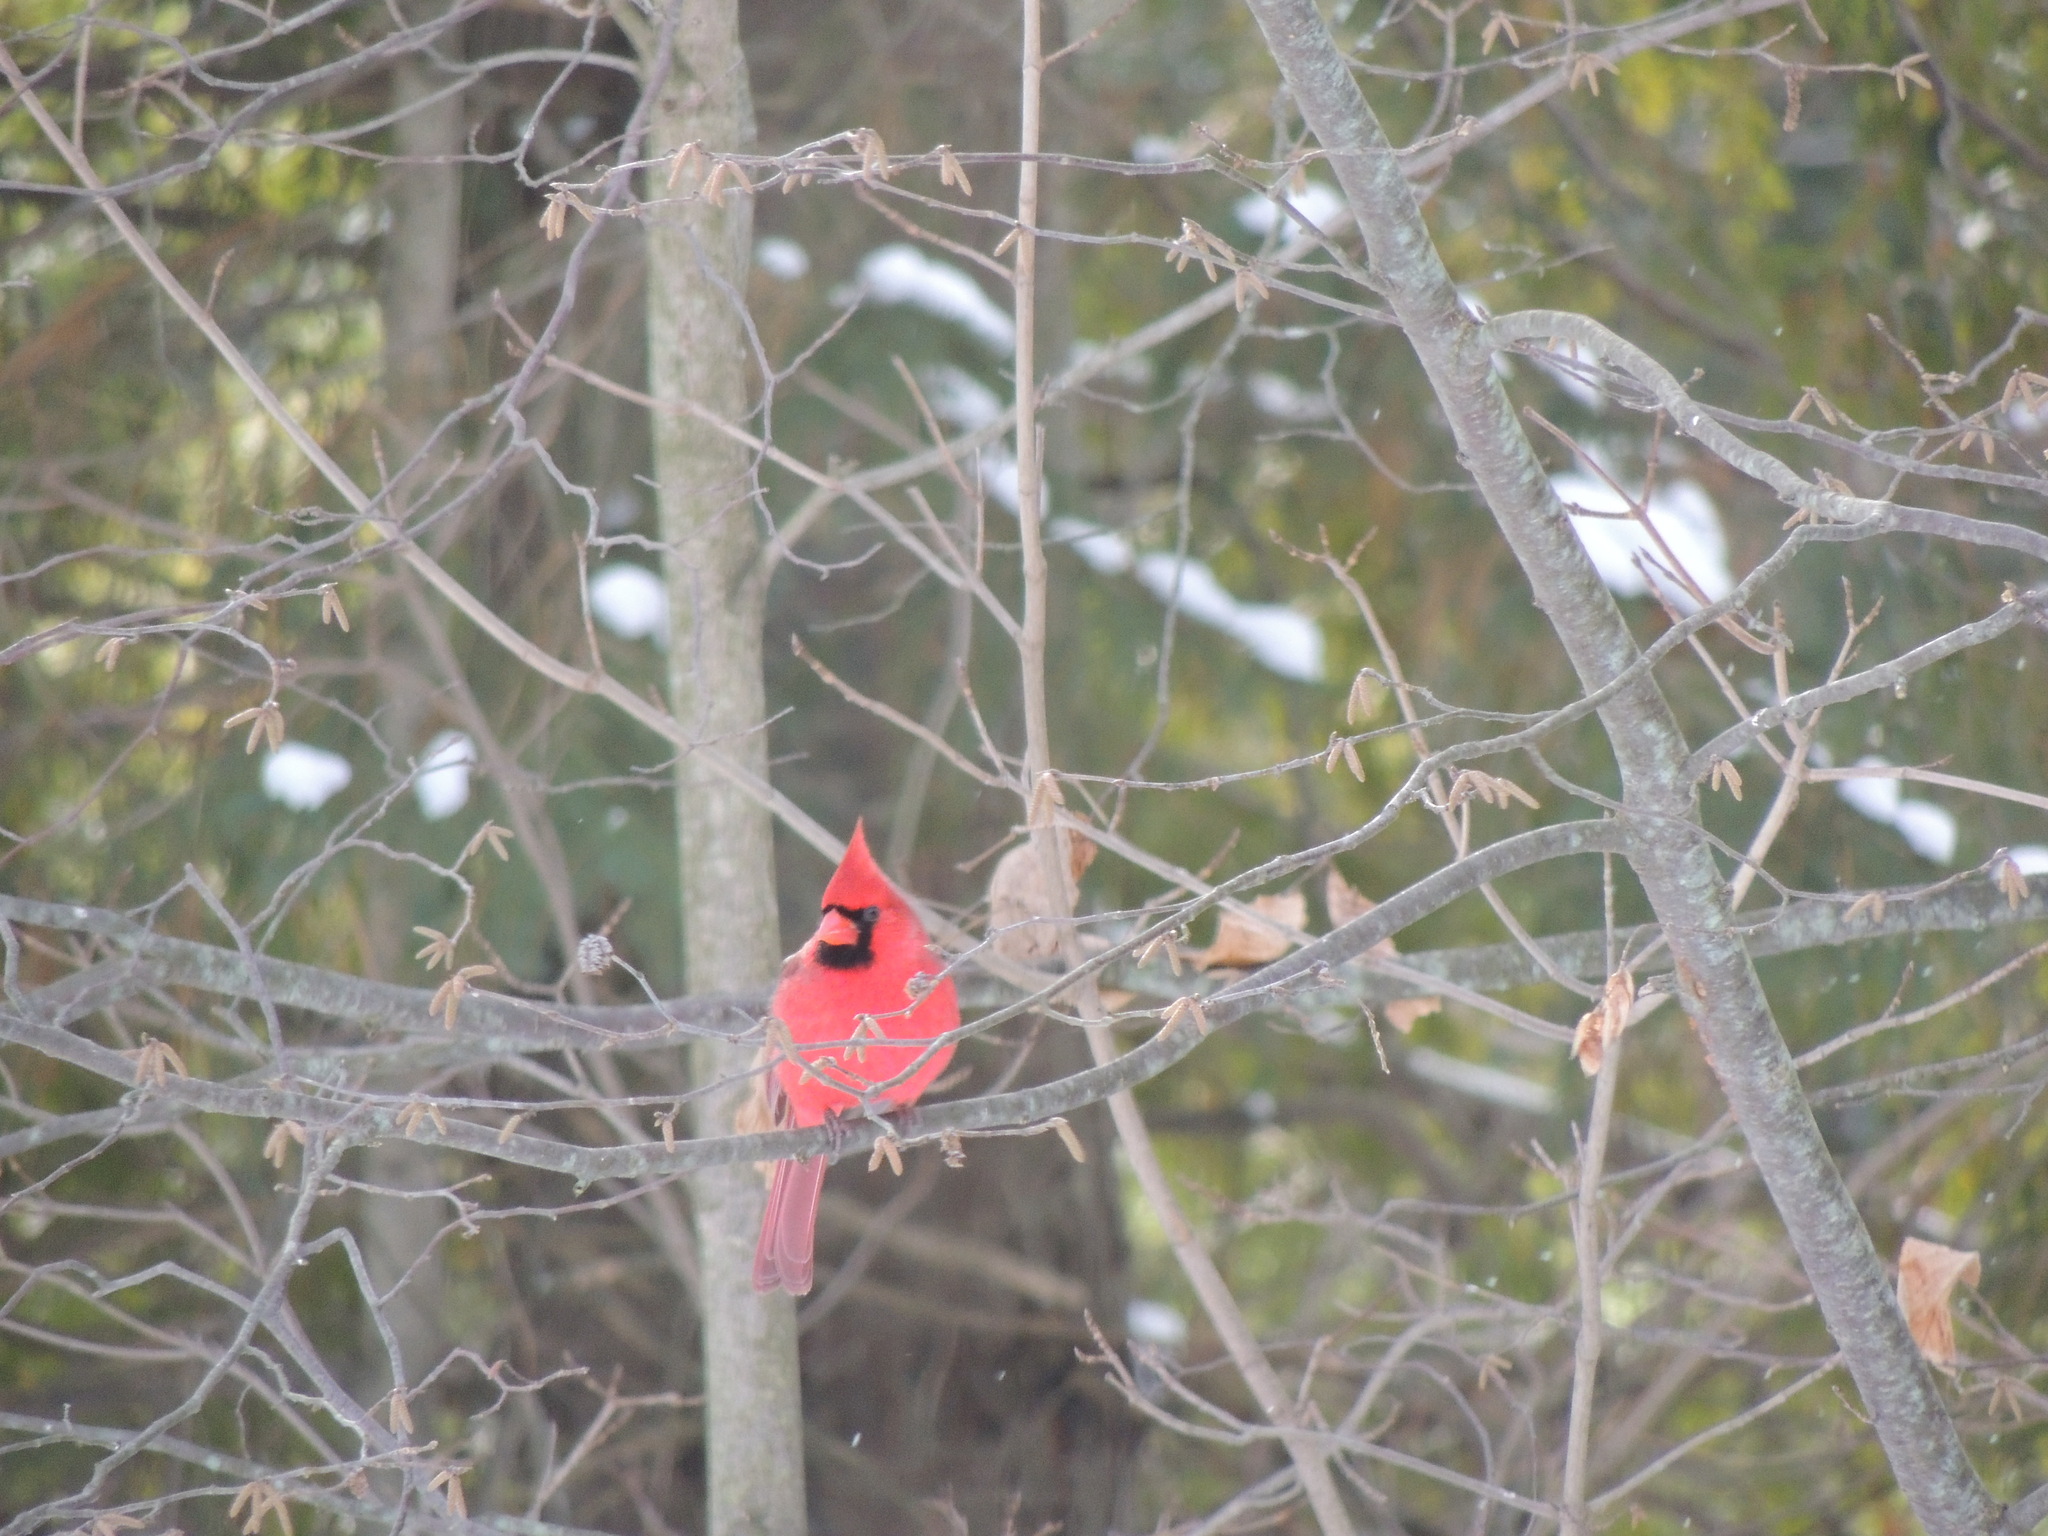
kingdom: Animalia
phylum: Chordata
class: Aves
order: Passeriformes
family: Cardinalidae
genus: Cardinalis
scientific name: Cardinalis cardinalis
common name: Northern cardinal
